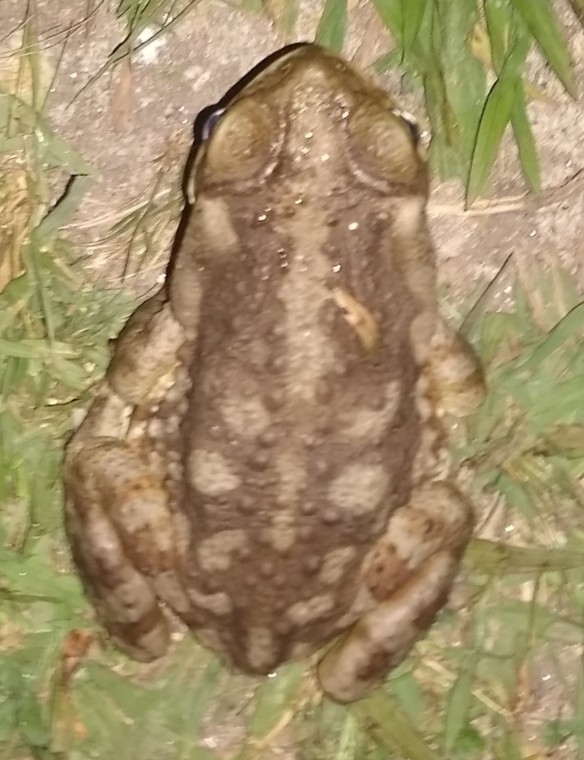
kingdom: Animalia
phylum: Chordata
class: Amphibia
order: Anura
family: Bufonidae
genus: Rhinella
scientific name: Rhinella arenarum
